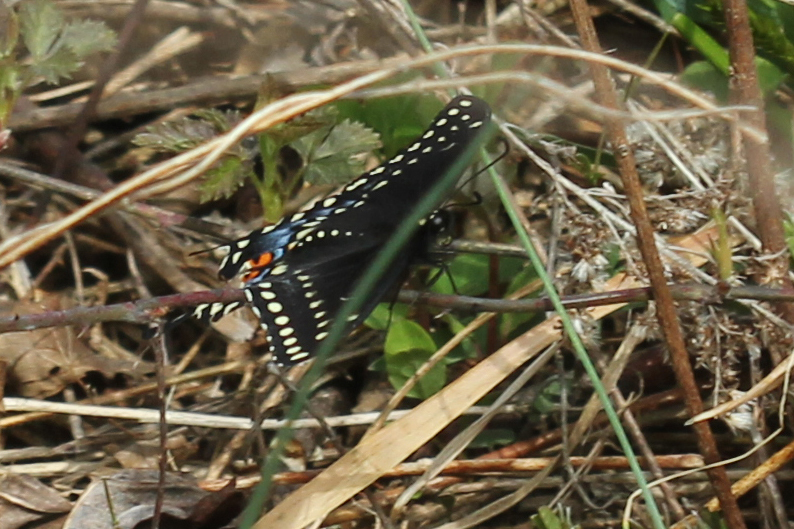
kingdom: Animalia
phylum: Arthropoda
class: Insecta
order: Lepidoptera
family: Papilionidae
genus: Papilio
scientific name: Papilio polyxenes
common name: Black swallowtail
